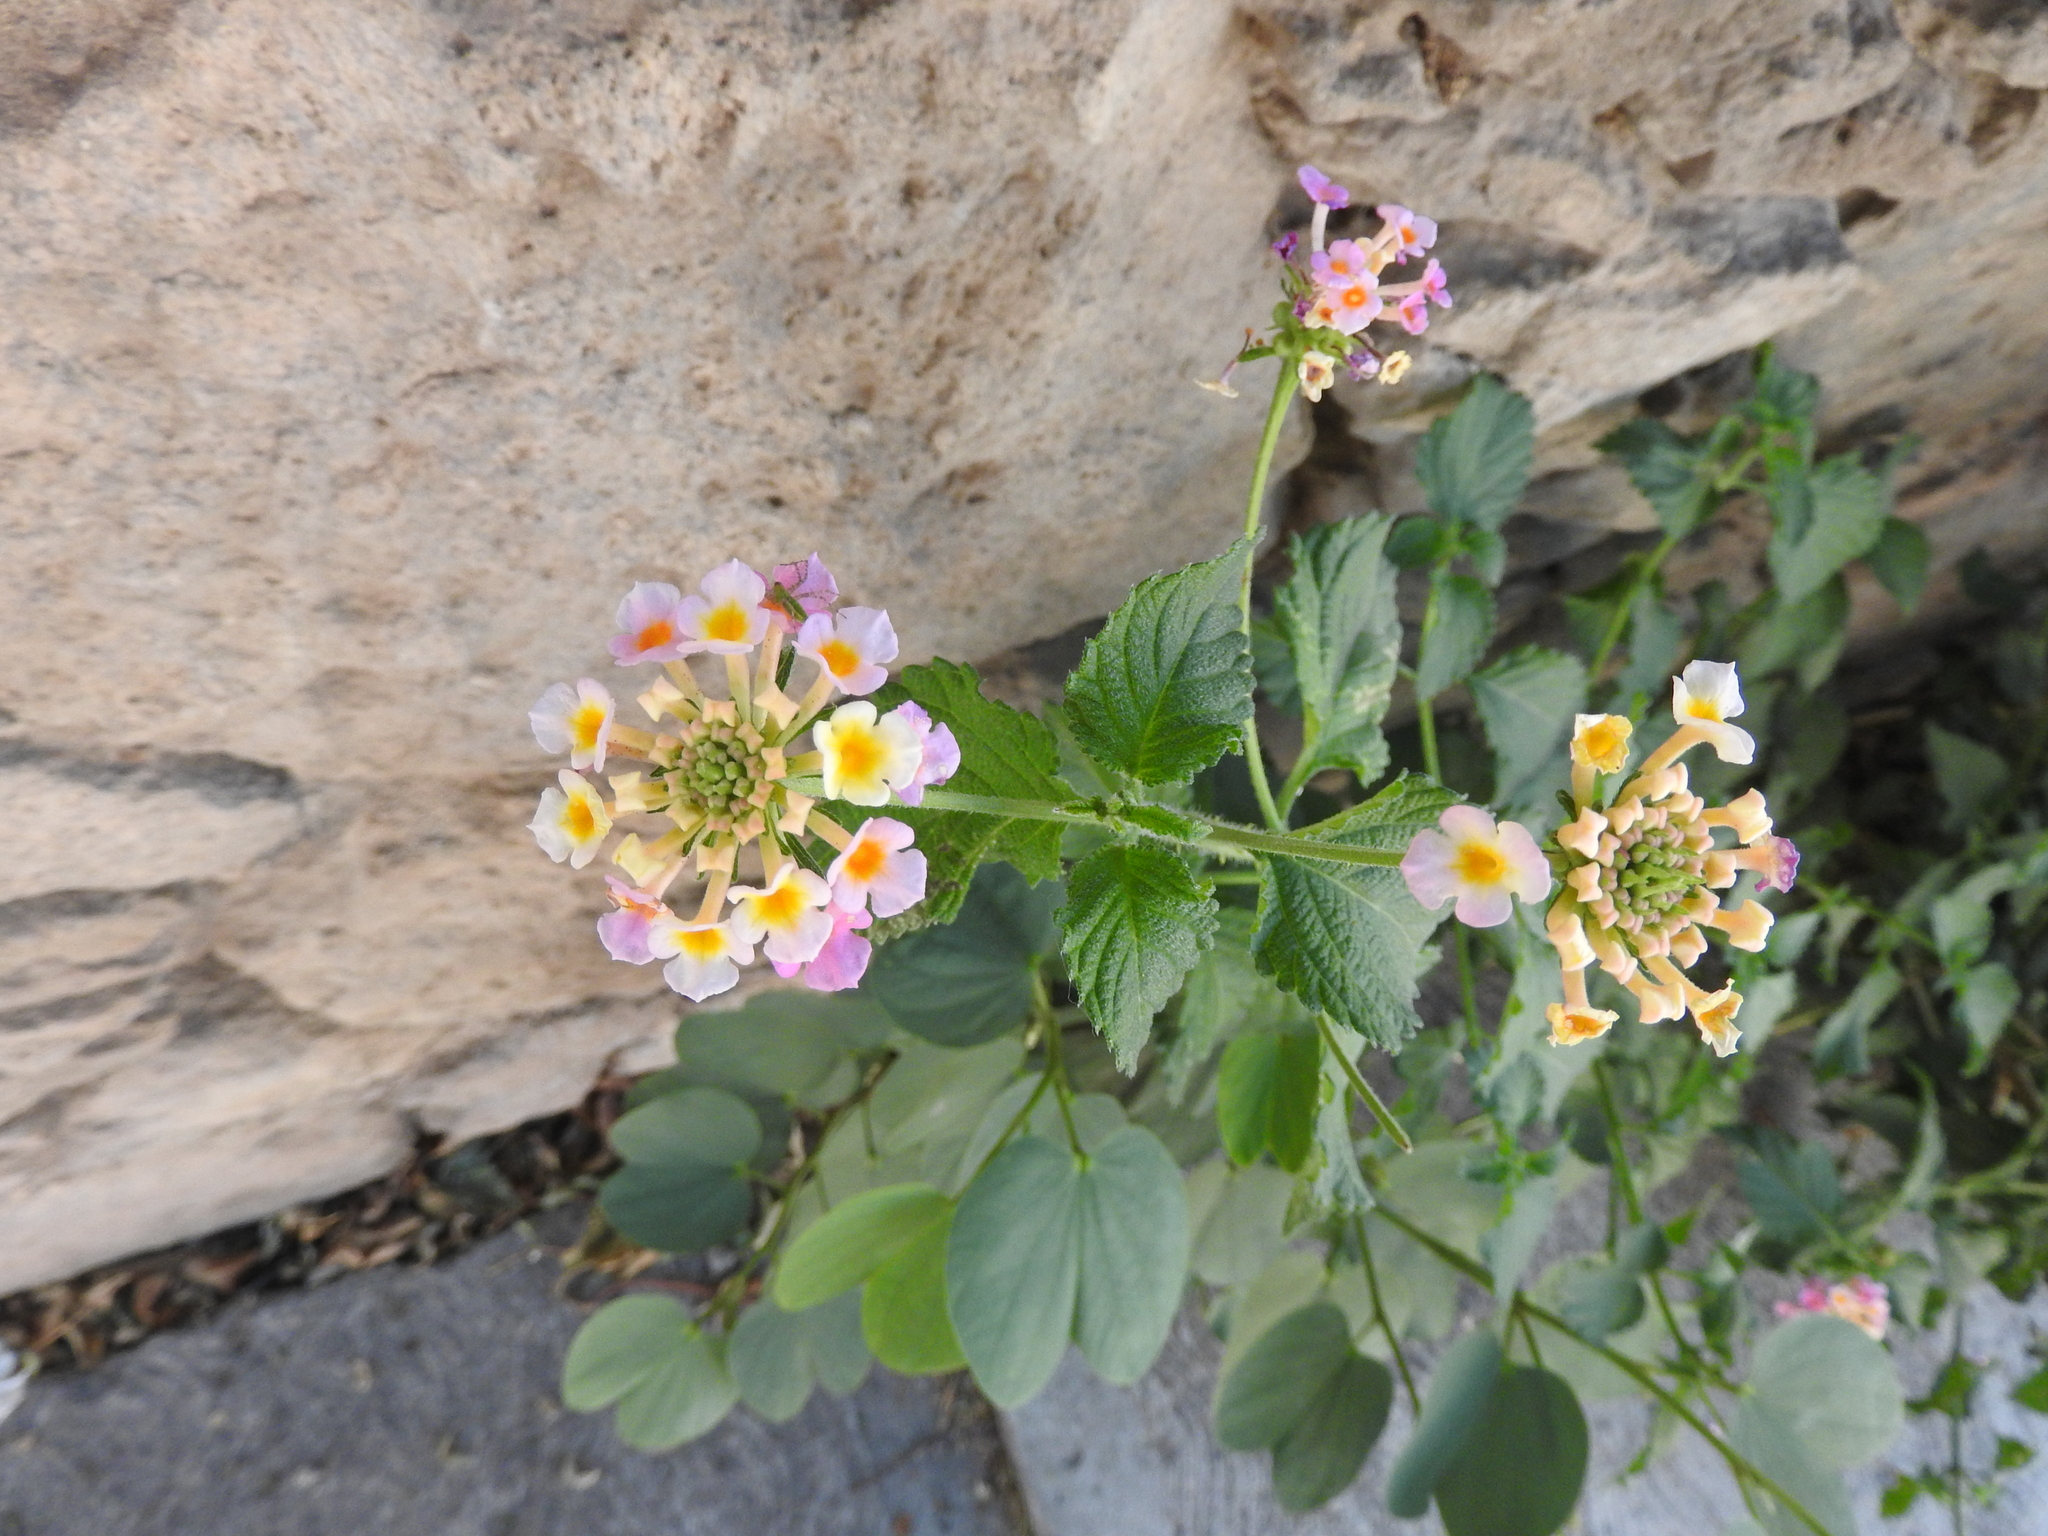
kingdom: Plantae
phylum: Tracheophyta
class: Magnoliopsida
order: Lamiales
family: Verbenaceae
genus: Lantana
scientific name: Lantana camara
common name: Lantana
